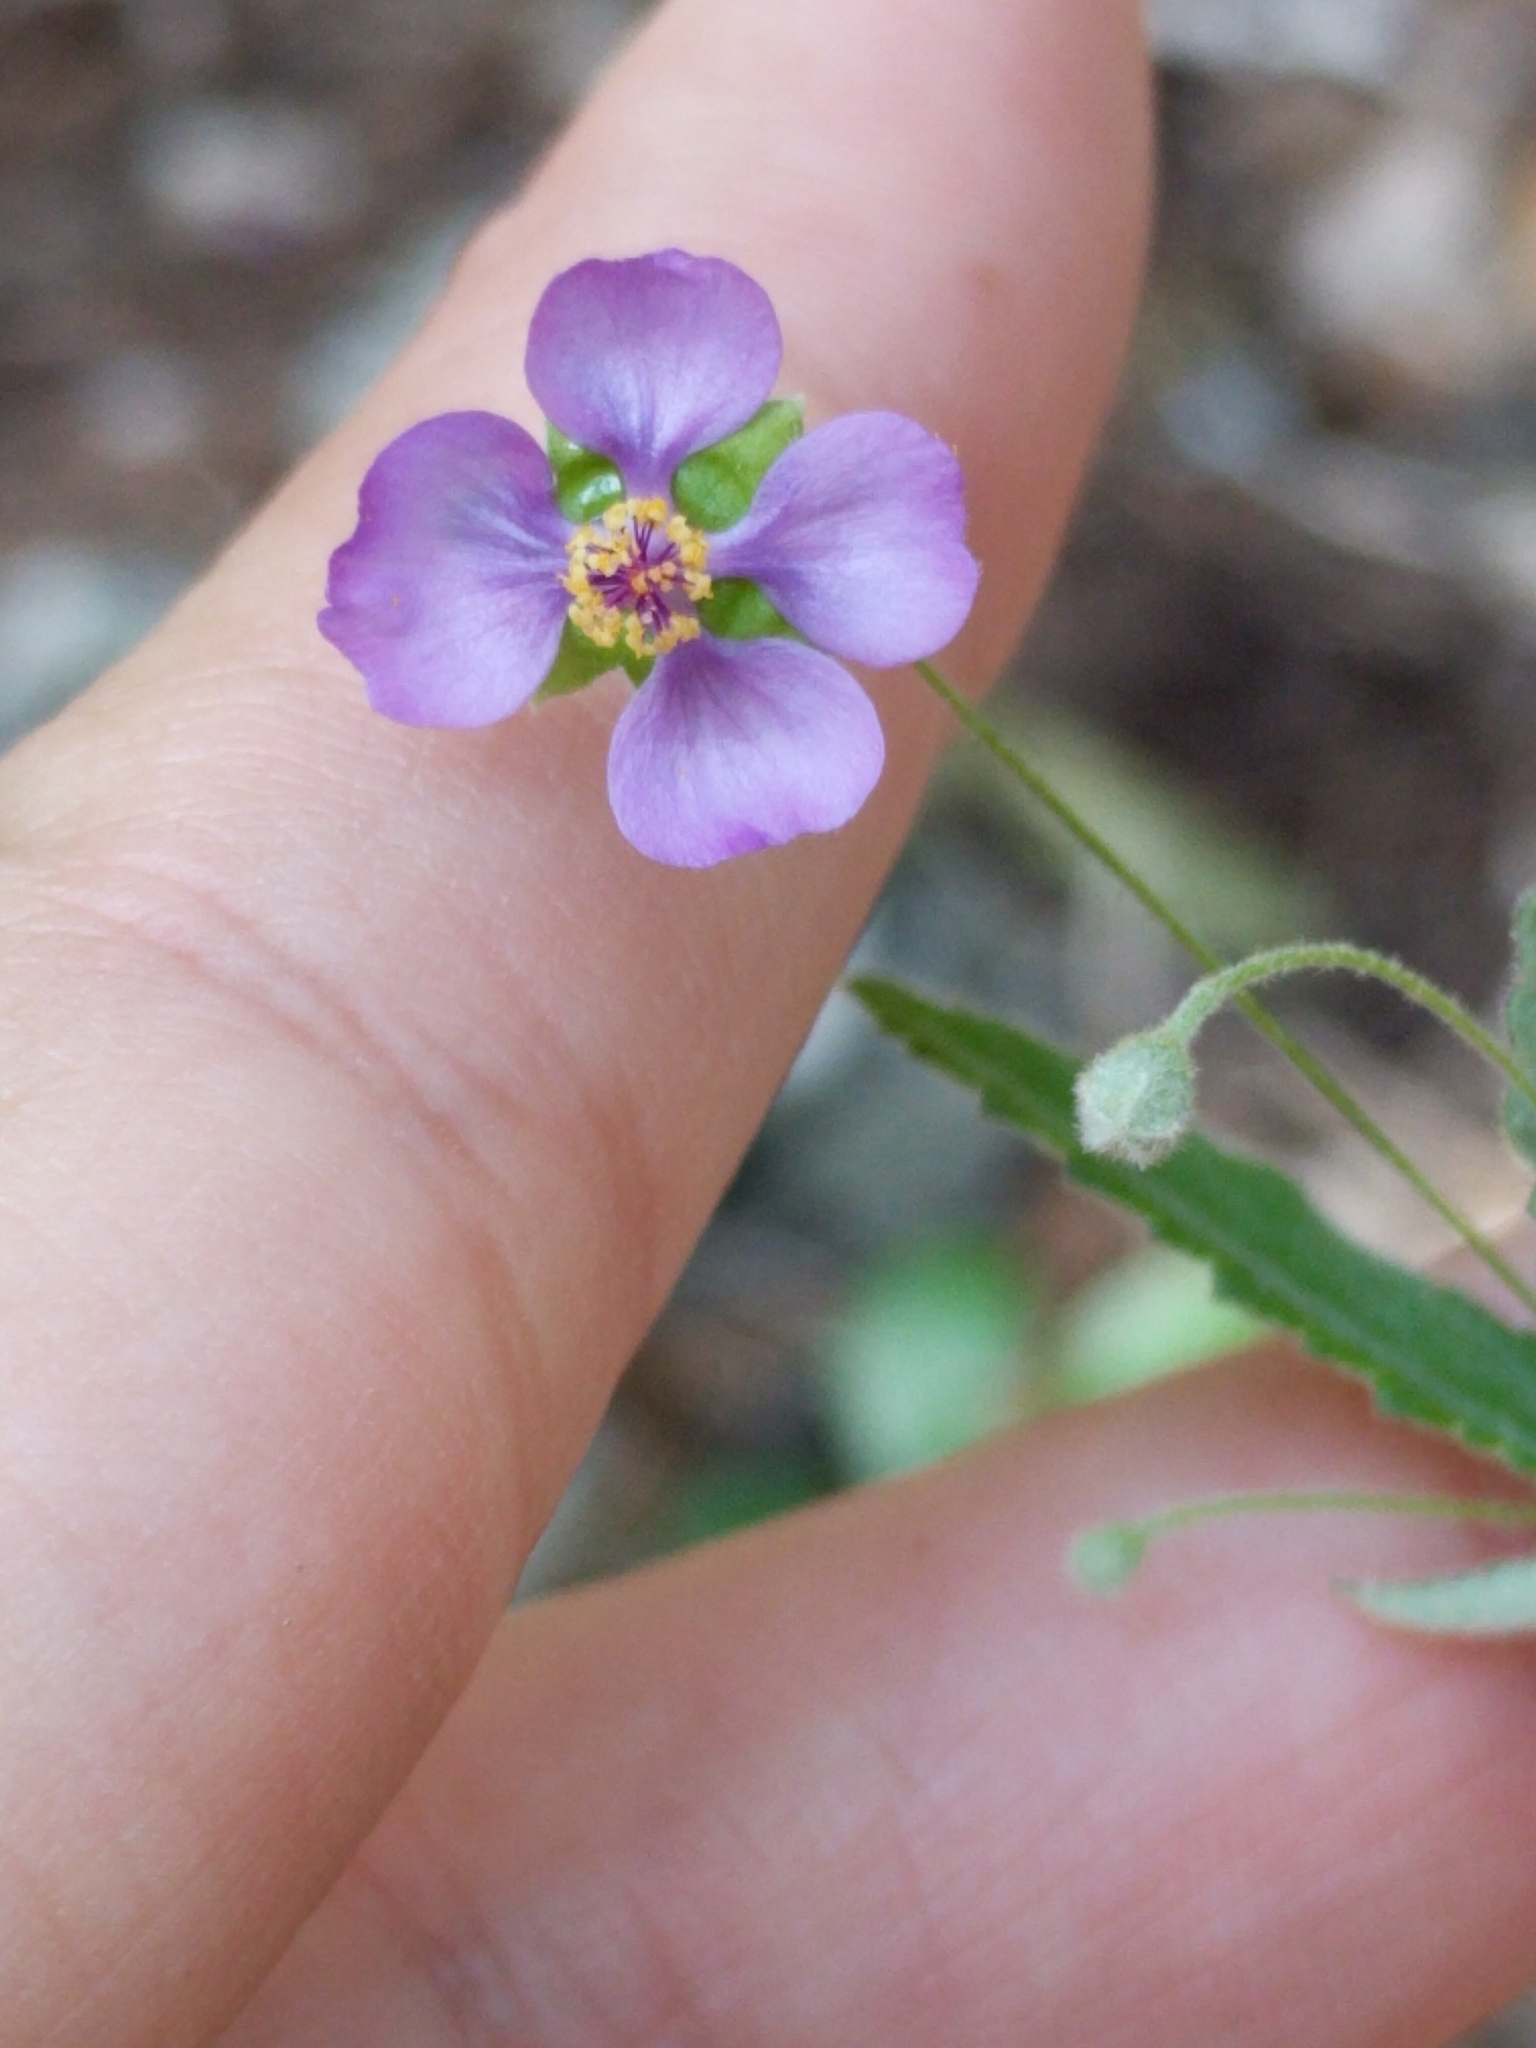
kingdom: Plantae
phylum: Tracheophyta
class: Magnoliopsida
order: Malvales
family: Malvaceae
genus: Meximalva
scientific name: Meximalva filipes
